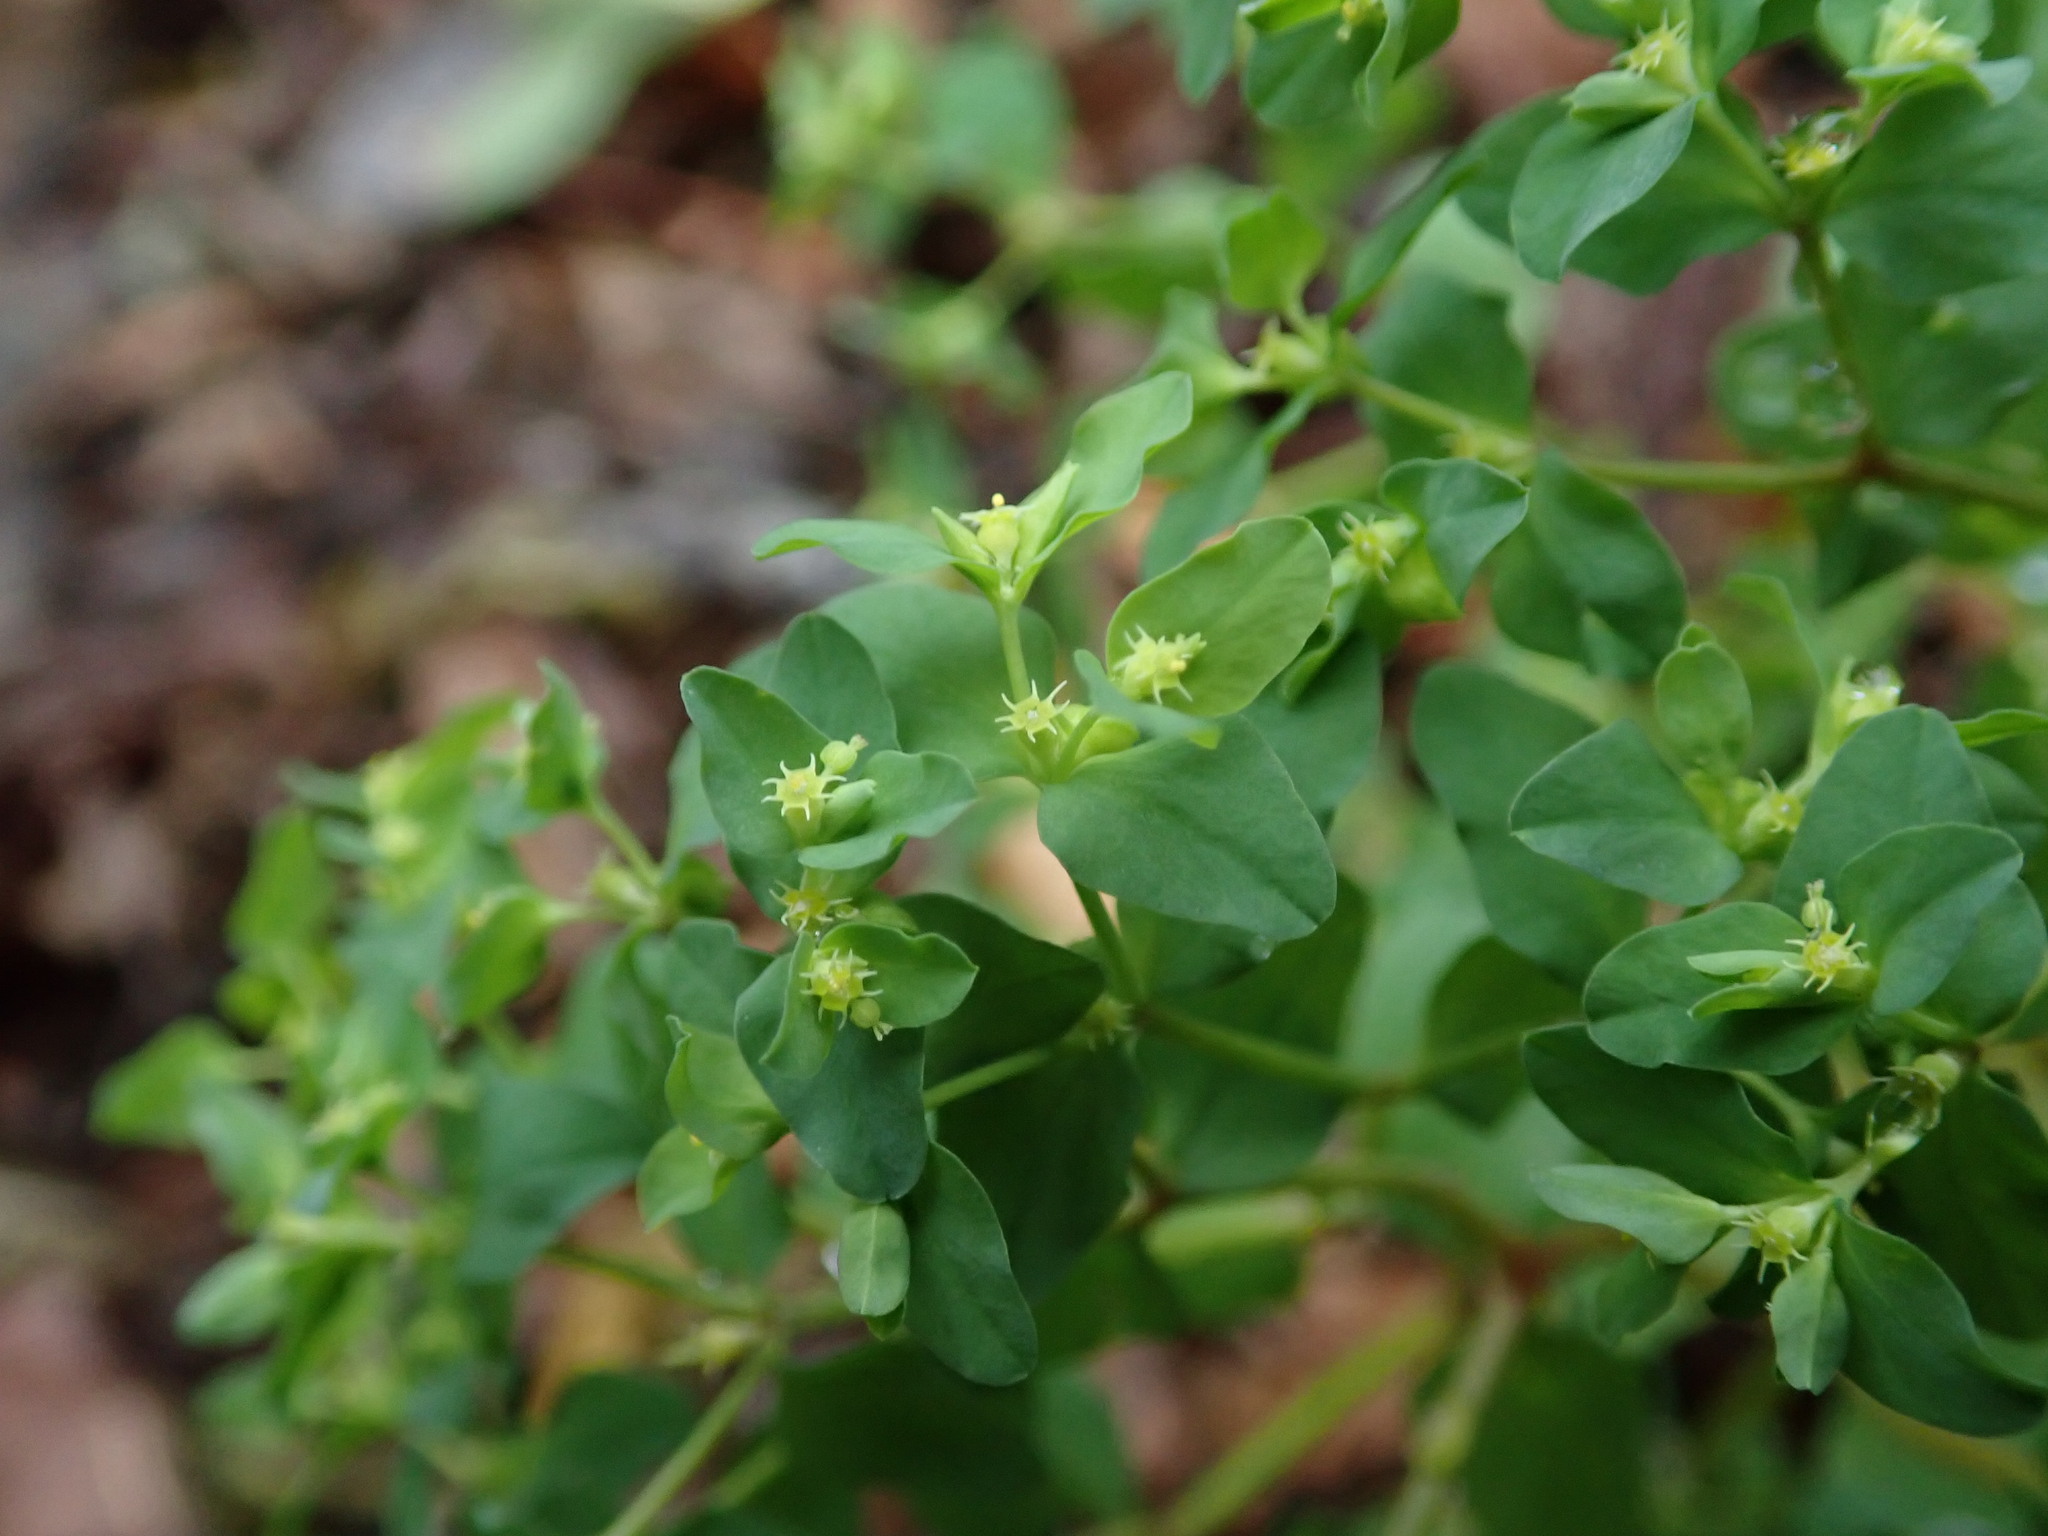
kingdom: Plantae
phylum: Tracheophyta
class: Magnoliopsida
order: Malpighiales
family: Euphorbiaceae
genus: Euphorbia
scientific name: Euphorbia peplus
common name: Petty spurge
